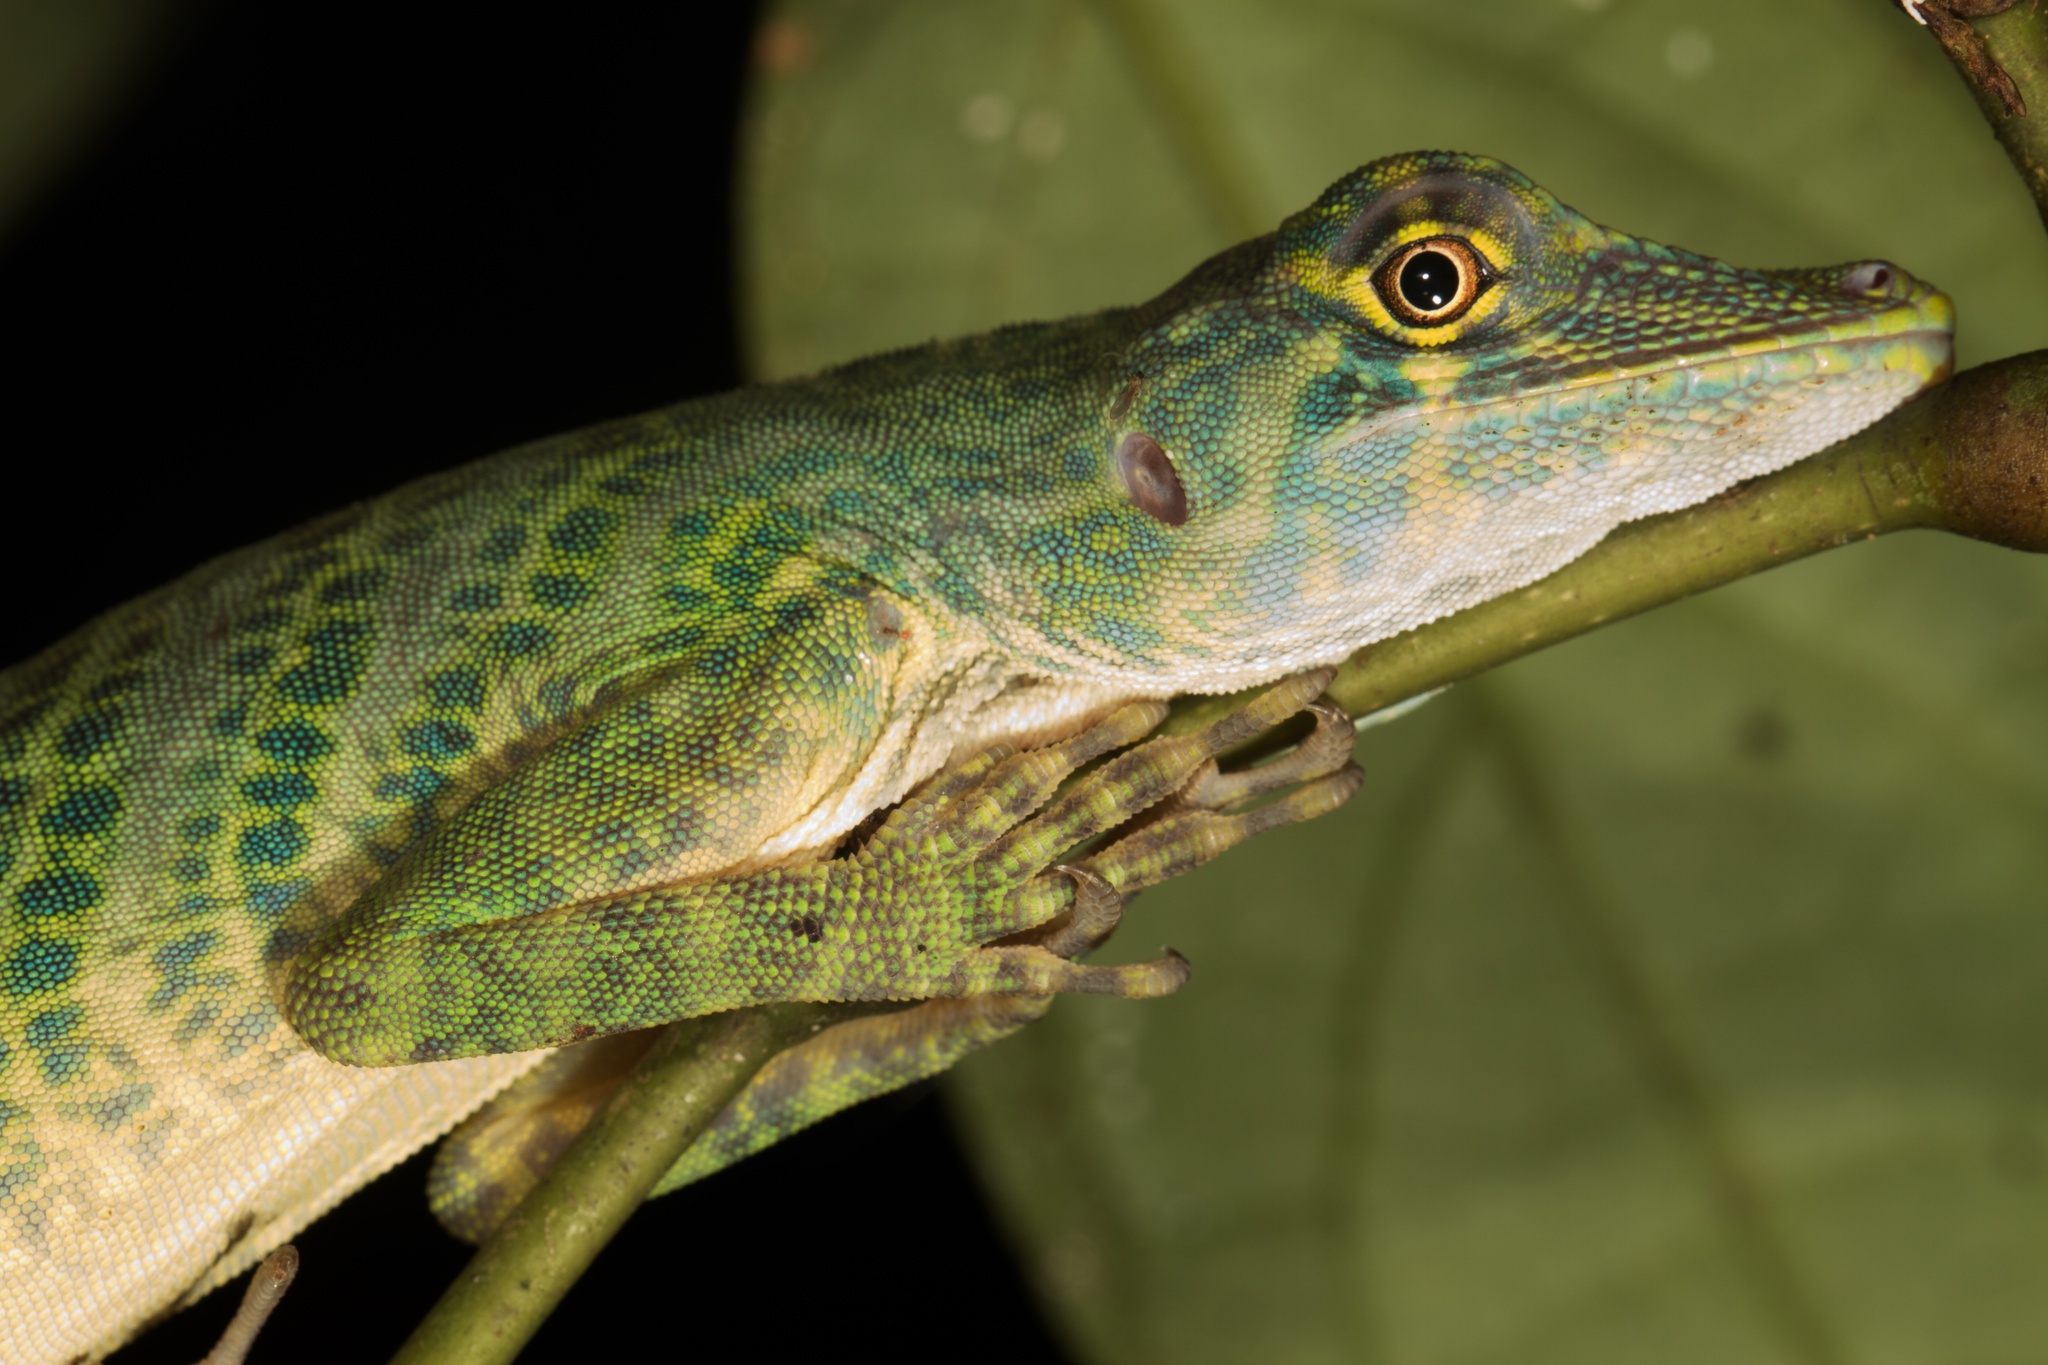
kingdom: Animalia
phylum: Chordata
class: Squamata
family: Dactyloidae
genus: Anolis
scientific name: Anolis frenatus
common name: Bridled anole
